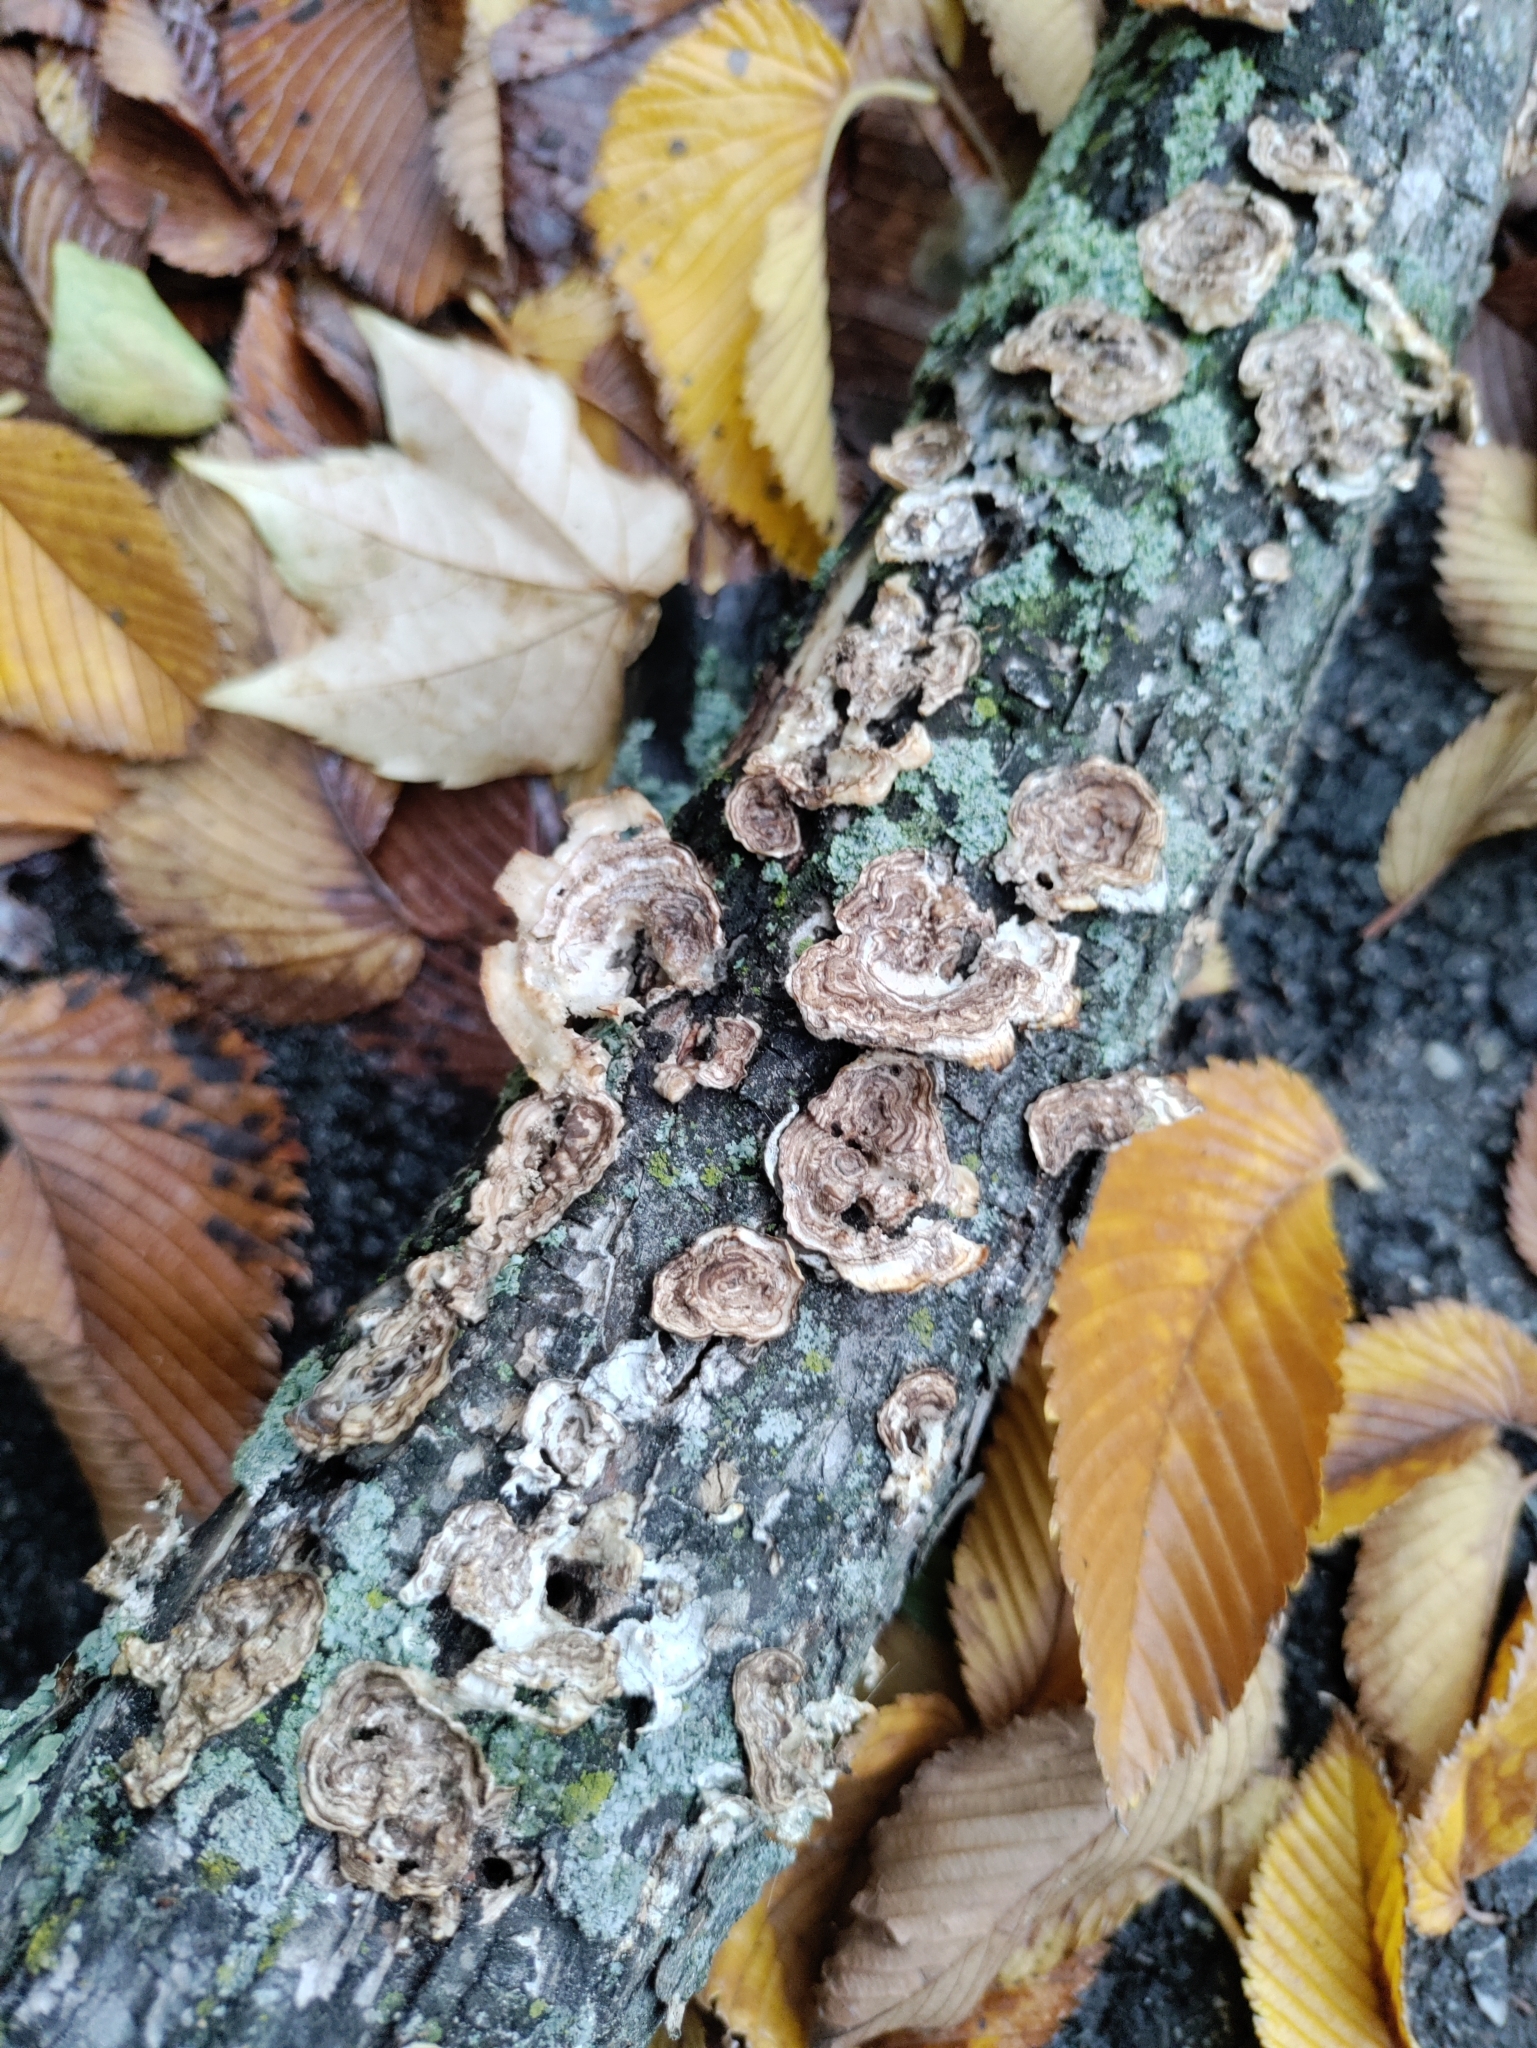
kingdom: Fungi
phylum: Basidiomycota
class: Agaricomycetes
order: Polyporales
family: Polyporaceae
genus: Poronidulus
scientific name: Poronidulus conchifer
